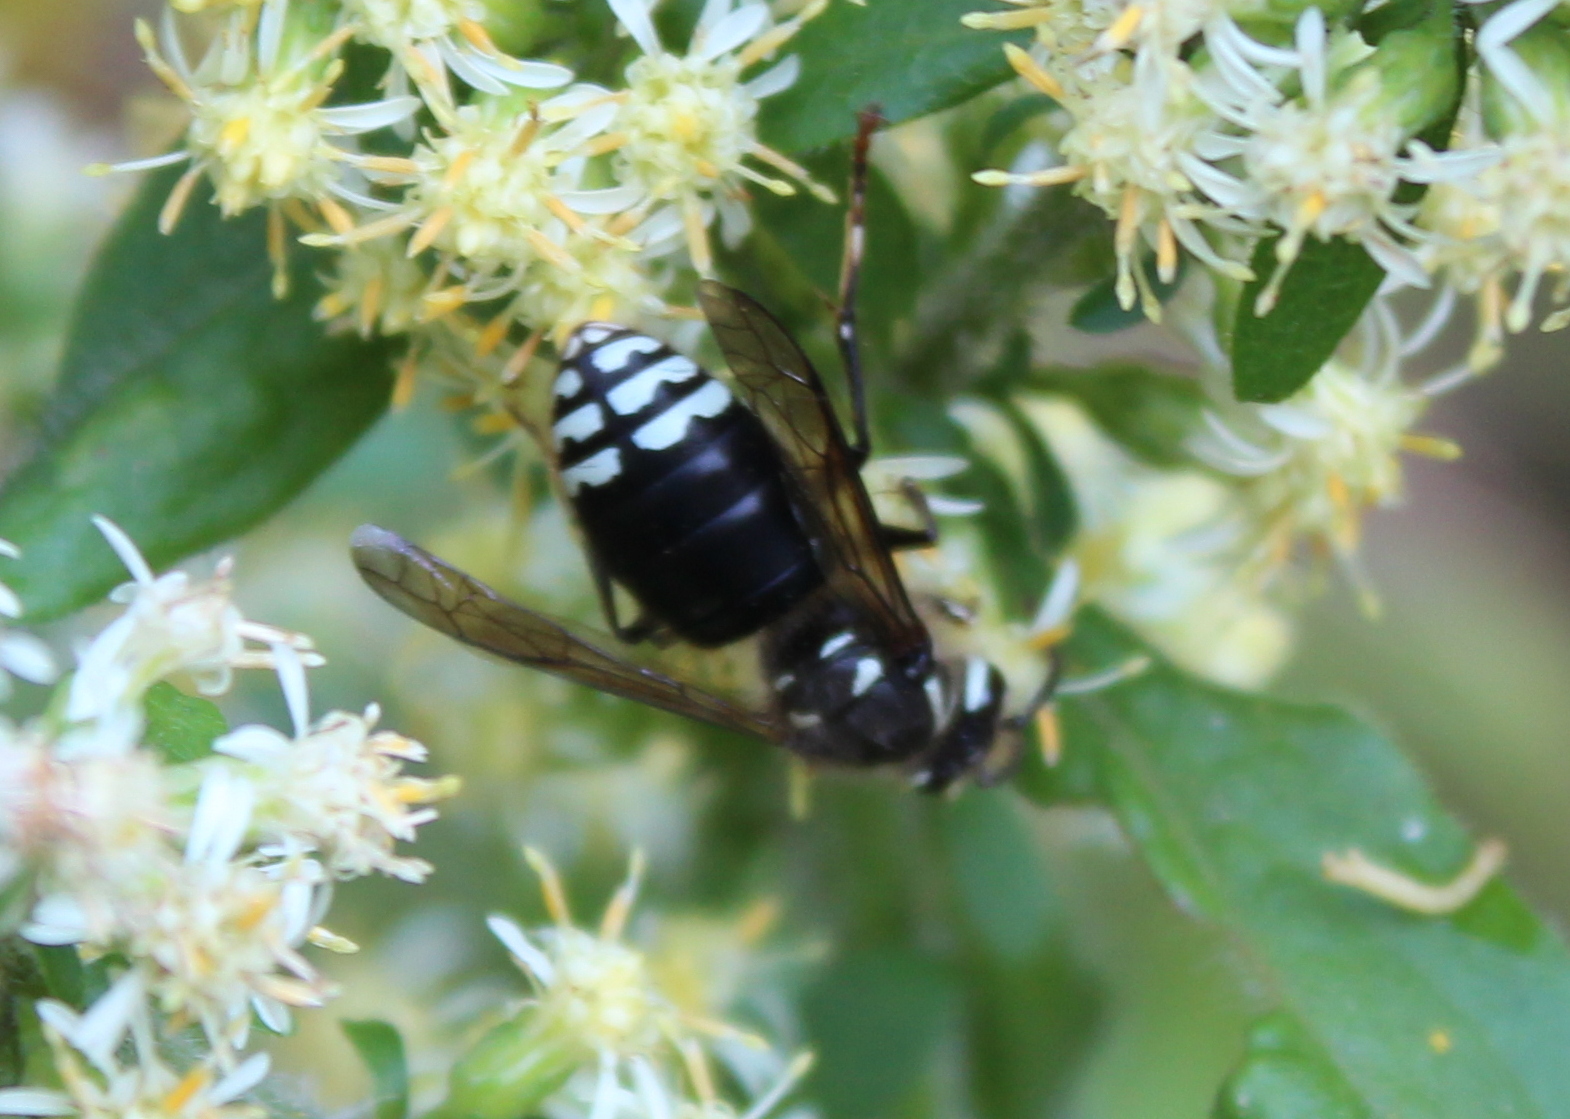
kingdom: Animalia
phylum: Arthropoda
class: Insecta
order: Hymenoptera
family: Vespidae
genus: Dolichovespula
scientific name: Dolichovespula maculata
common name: Bald-faced hornet
